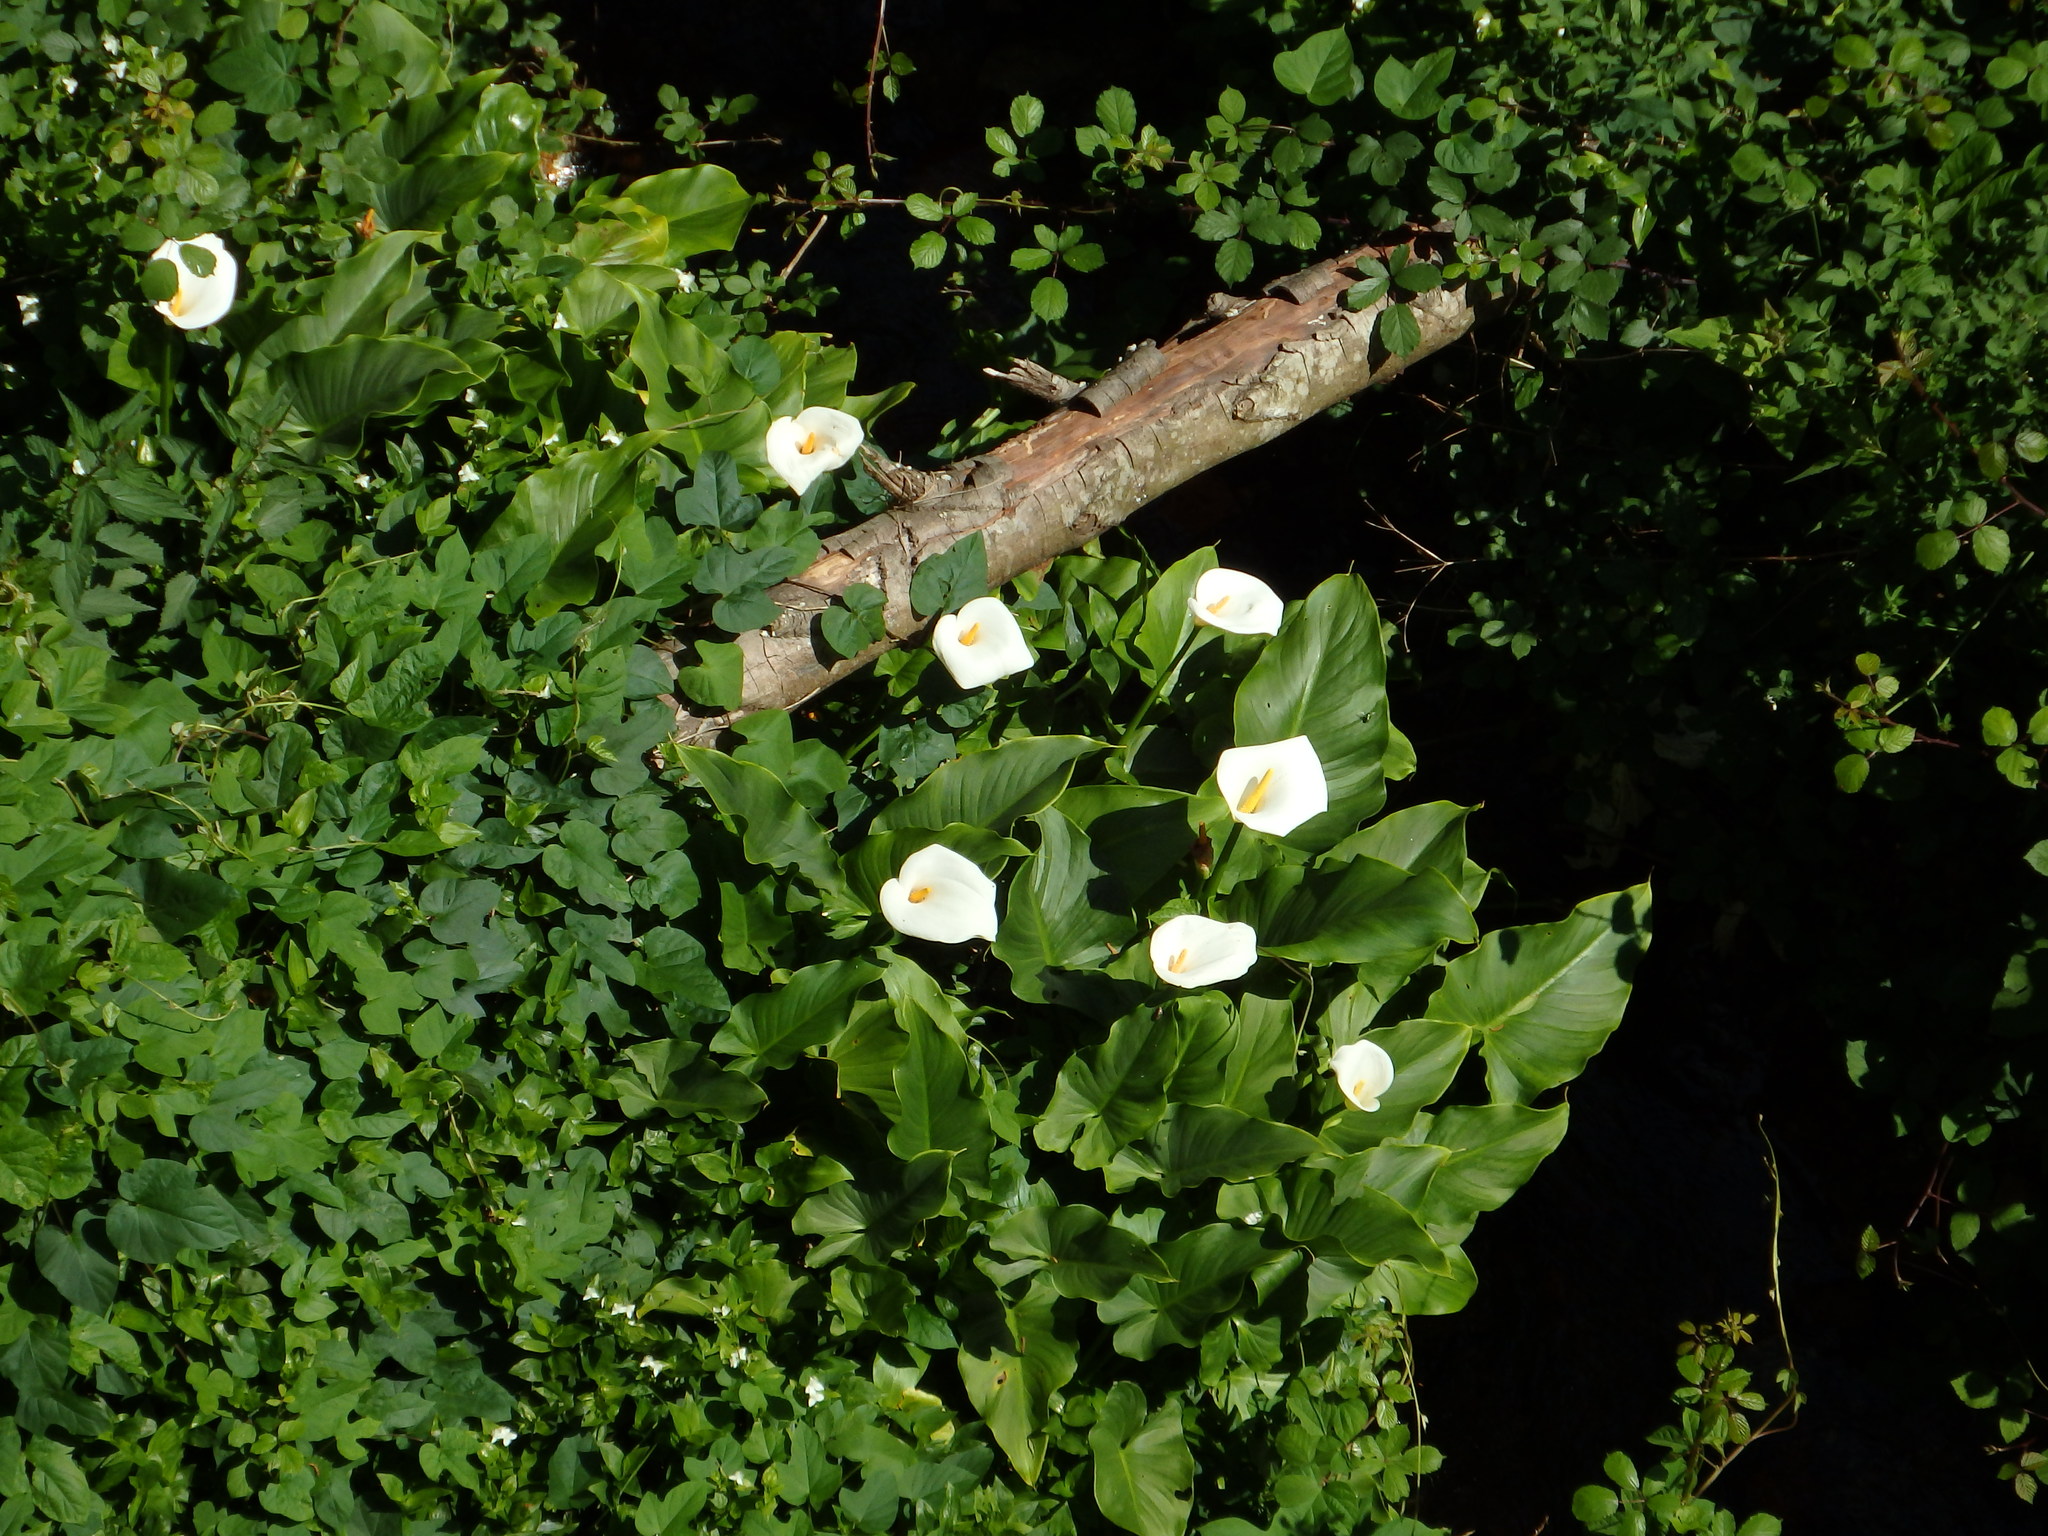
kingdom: Plantae
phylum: Tracheophyta
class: Liliopsida
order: Alismatales
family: Araceae
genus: Zantedeschia
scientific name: Zantedeschia aethiopica
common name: Altar-lily
